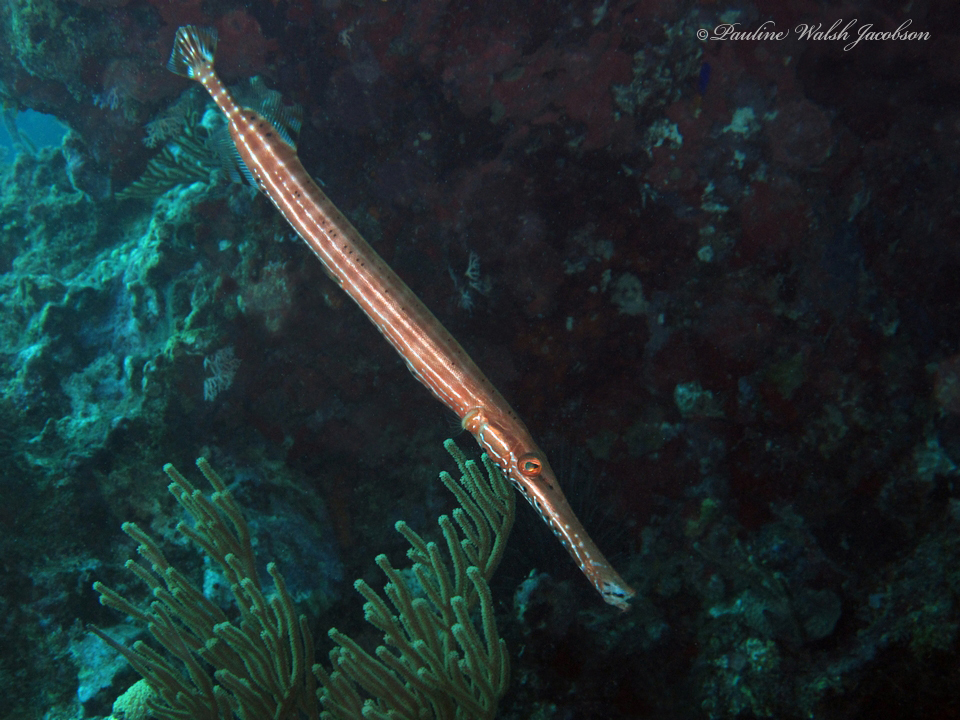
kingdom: Animalia
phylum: Chordata
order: Syngnathiformes
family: Aulostomidae
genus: Aulostomus
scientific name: Aulostomus maculatus
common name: West atlantic trumpetfish
